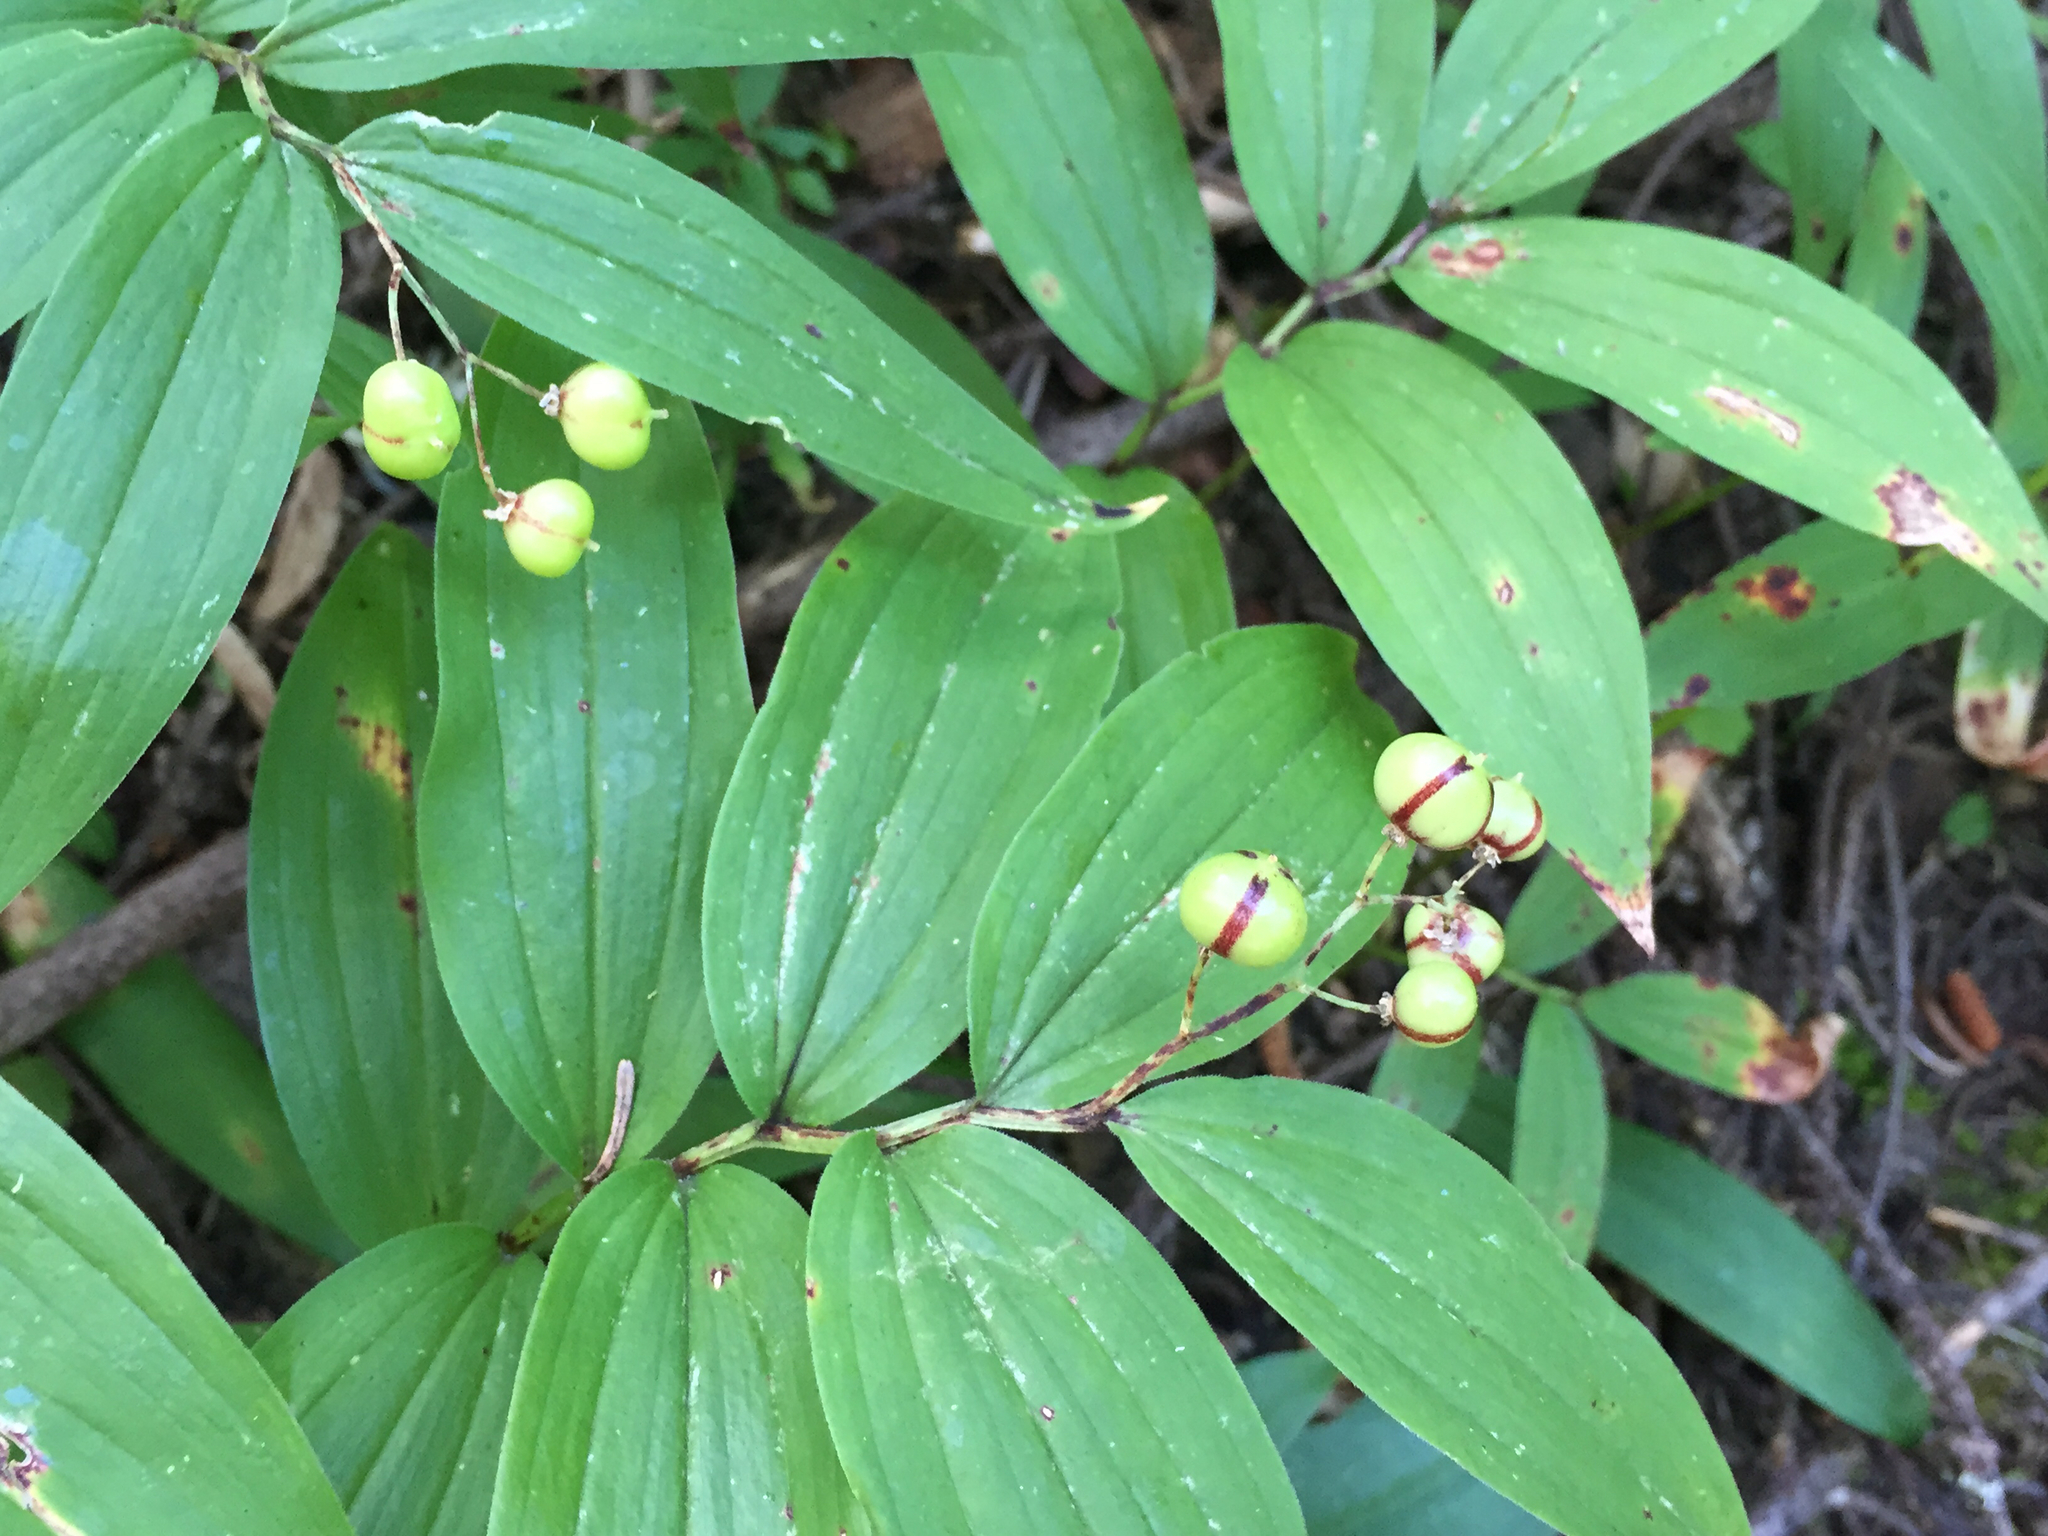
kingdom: Plantae
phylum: Tracheophyta
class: Liliopsida
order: Asparagales
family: Asparagaceae
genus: Maianthemum
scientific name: Maianthemum stellatum
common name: Little false solomon's seal
